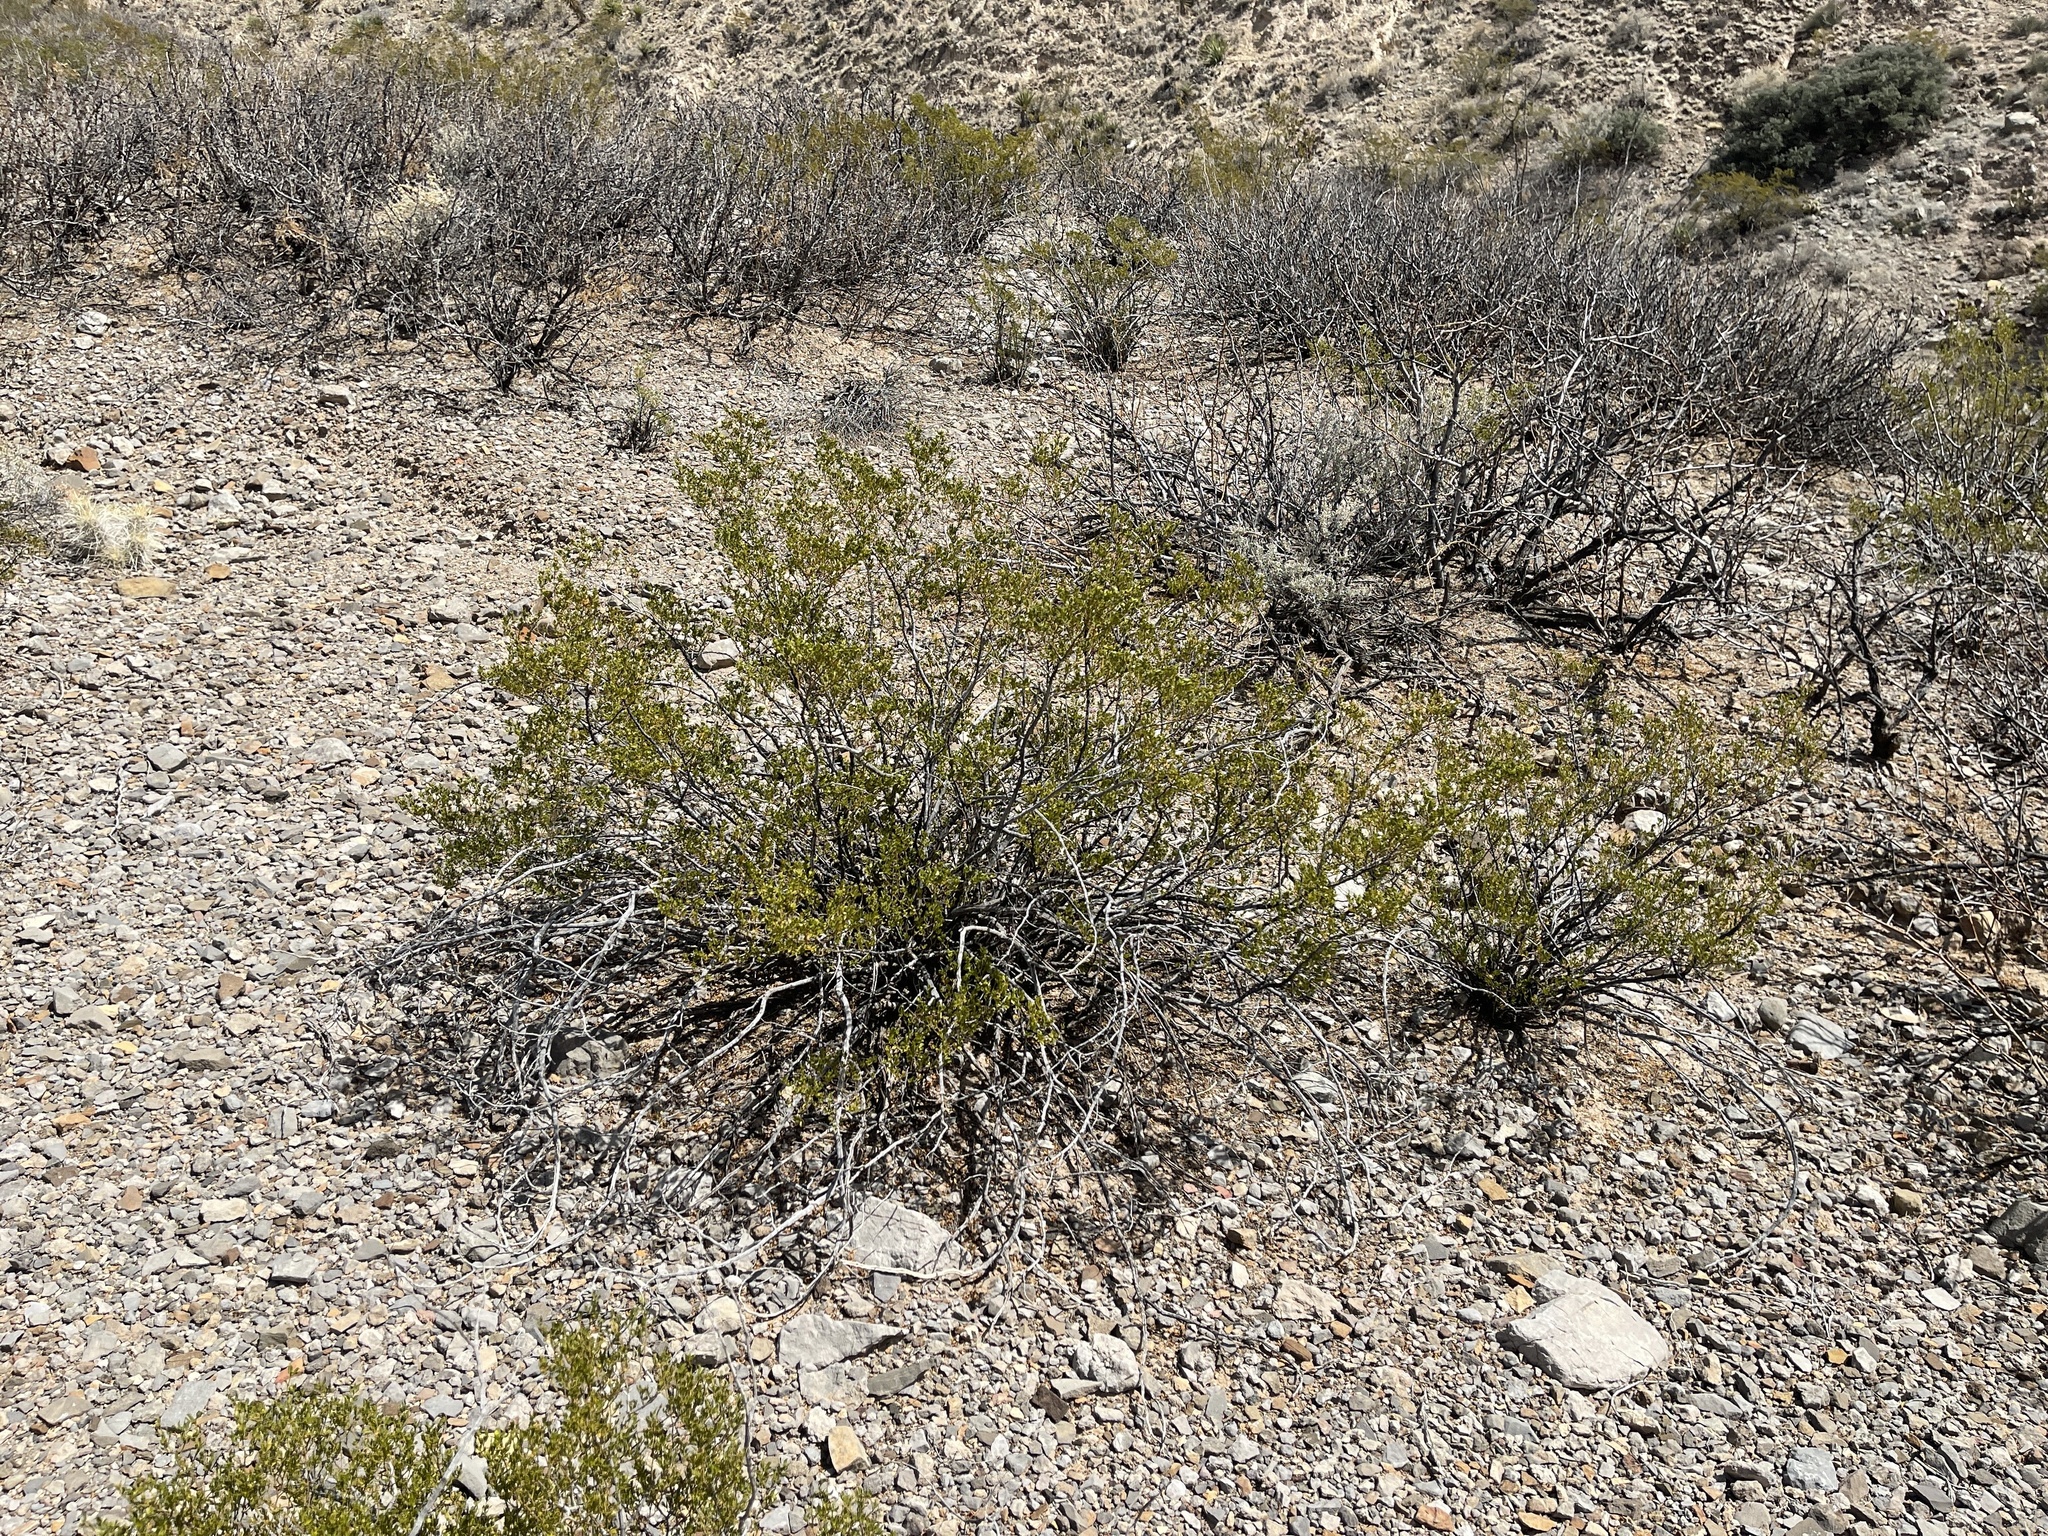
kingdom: Plantae
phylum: Tracheophyta
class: Magnoliopsida
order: Zygophyllales
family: Zygophyllaceae
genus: Larrea
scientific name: Larrea tridentata
